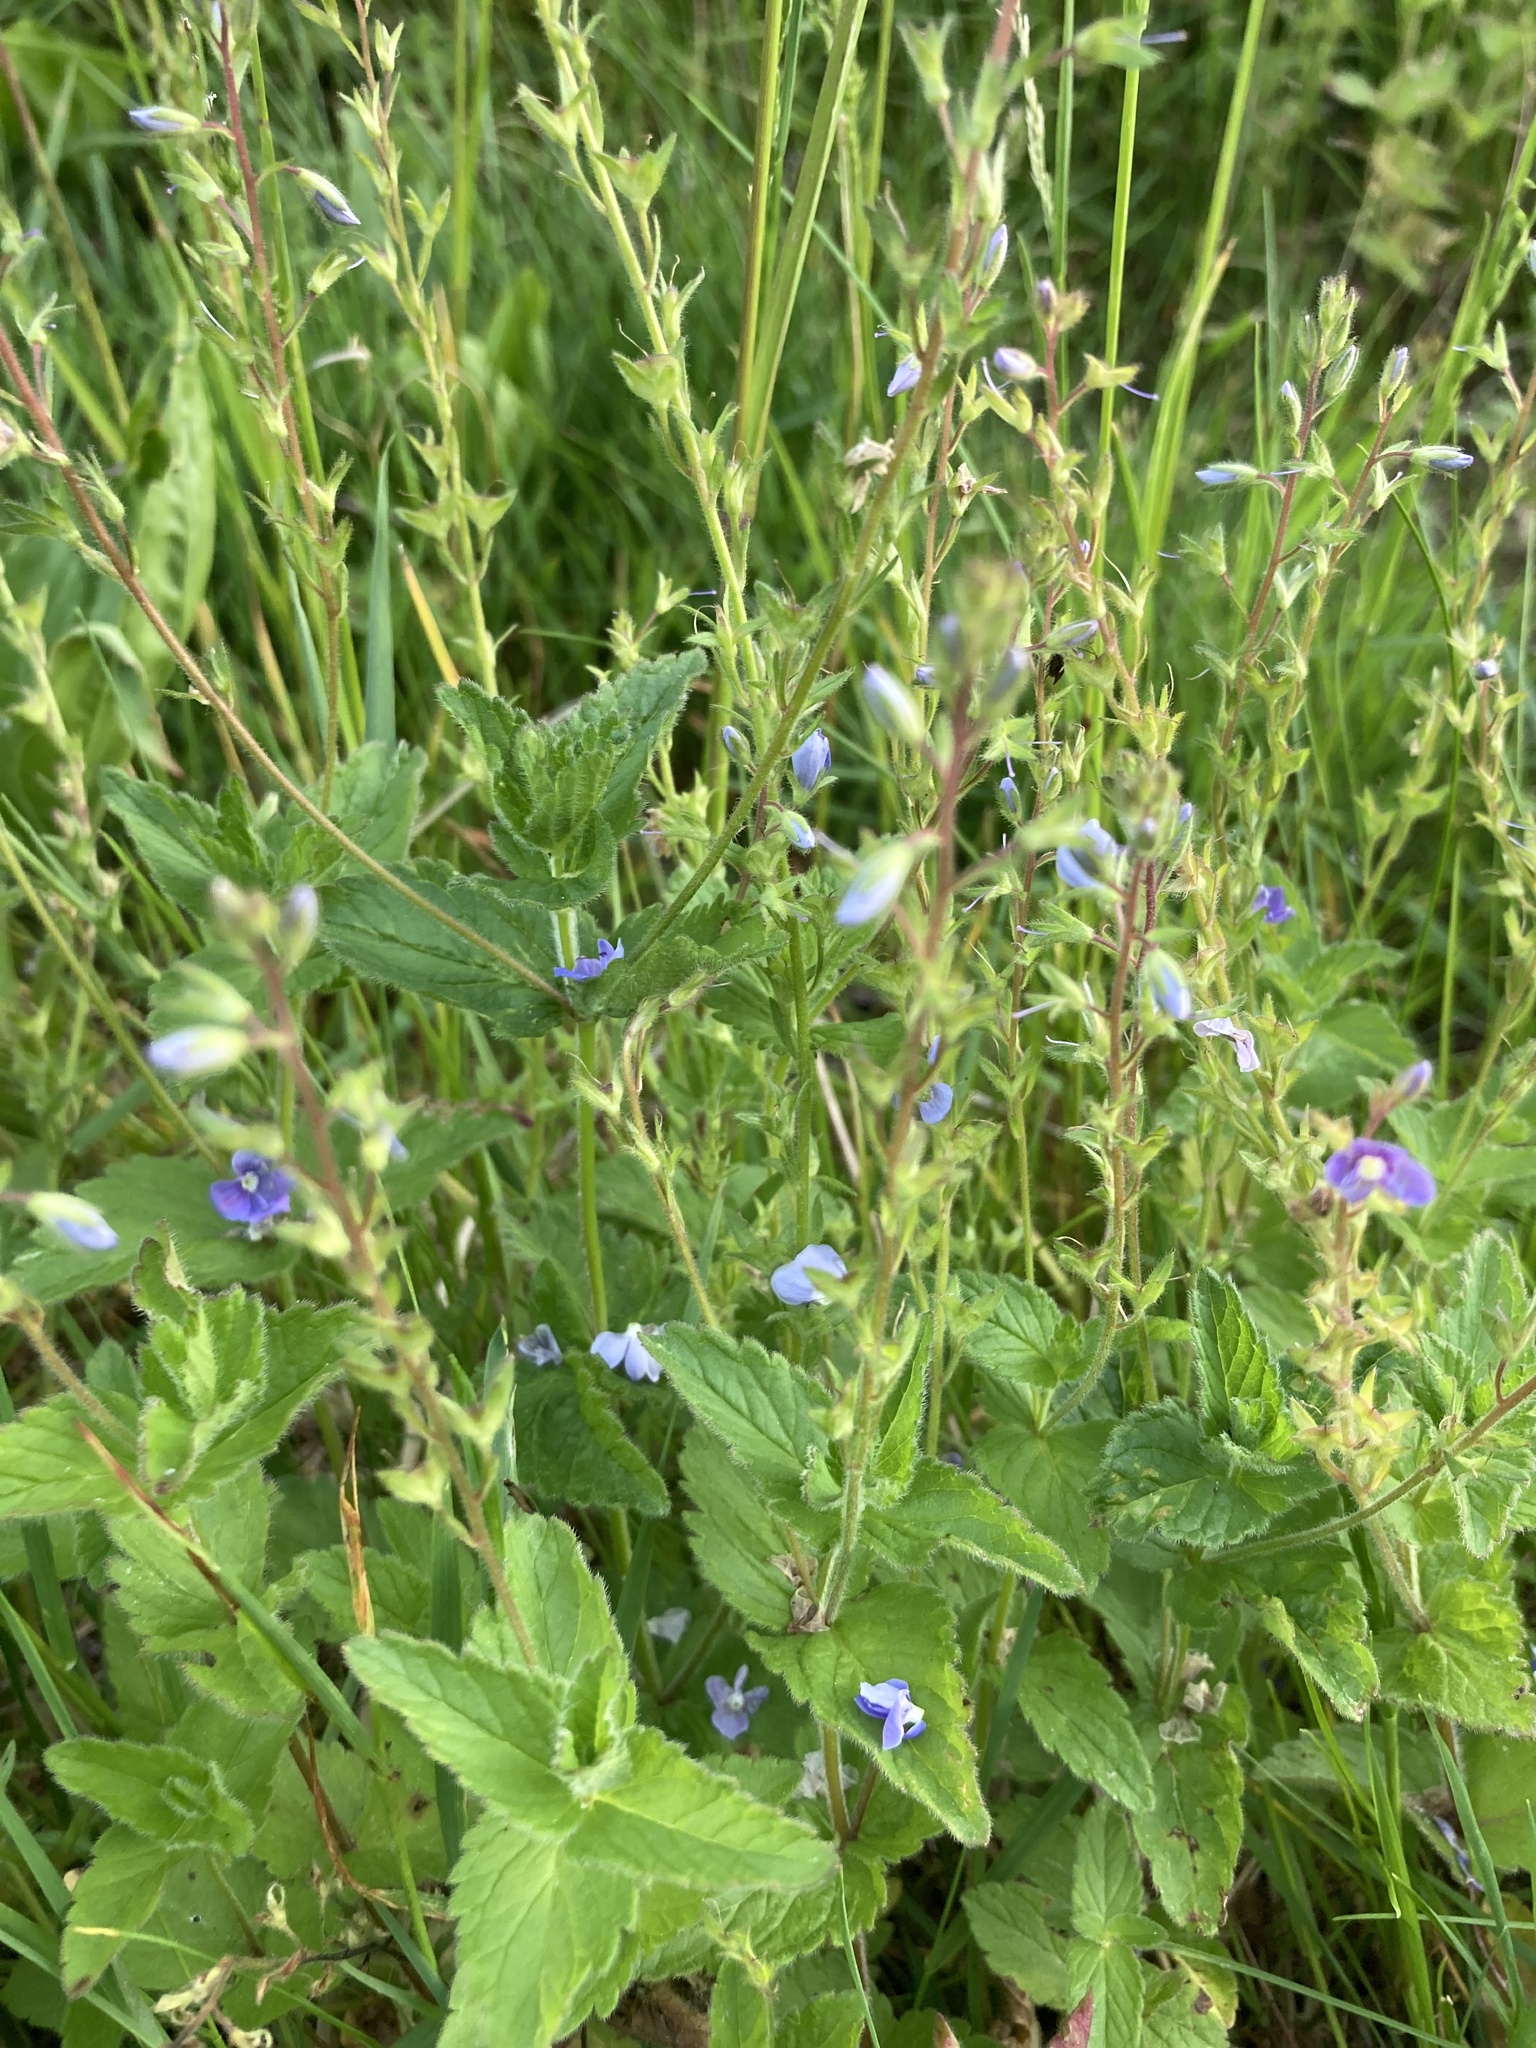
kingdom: Plantae
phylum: Tracheophyta
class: Magnoliopsida
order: Lamiales
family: Plantaginaceae
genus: Veronica
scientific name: Veronica chamaedrys
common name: Germander speedwell
